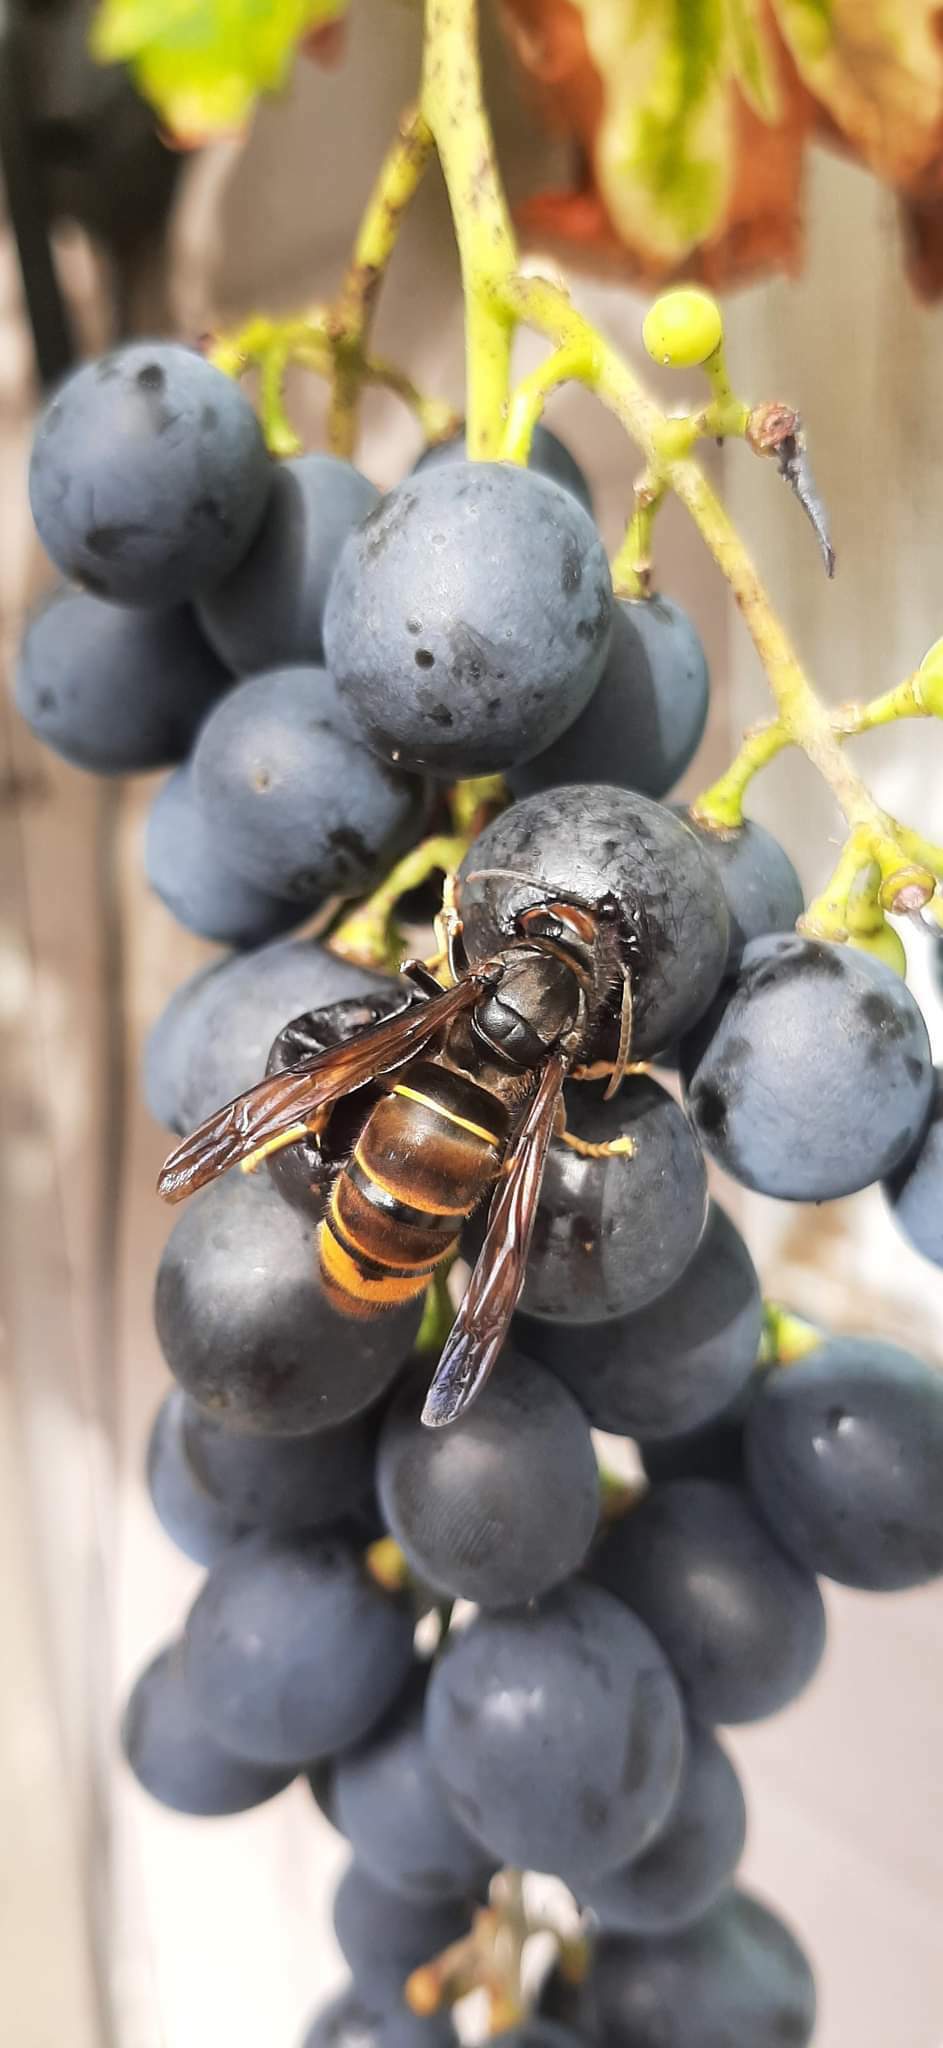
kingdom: Animalia
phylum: Arthropoda
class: Insecta
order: Hymenoptera
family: Vespidae
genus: Vespa
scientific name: Vespa velutina
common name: Asian hornet
